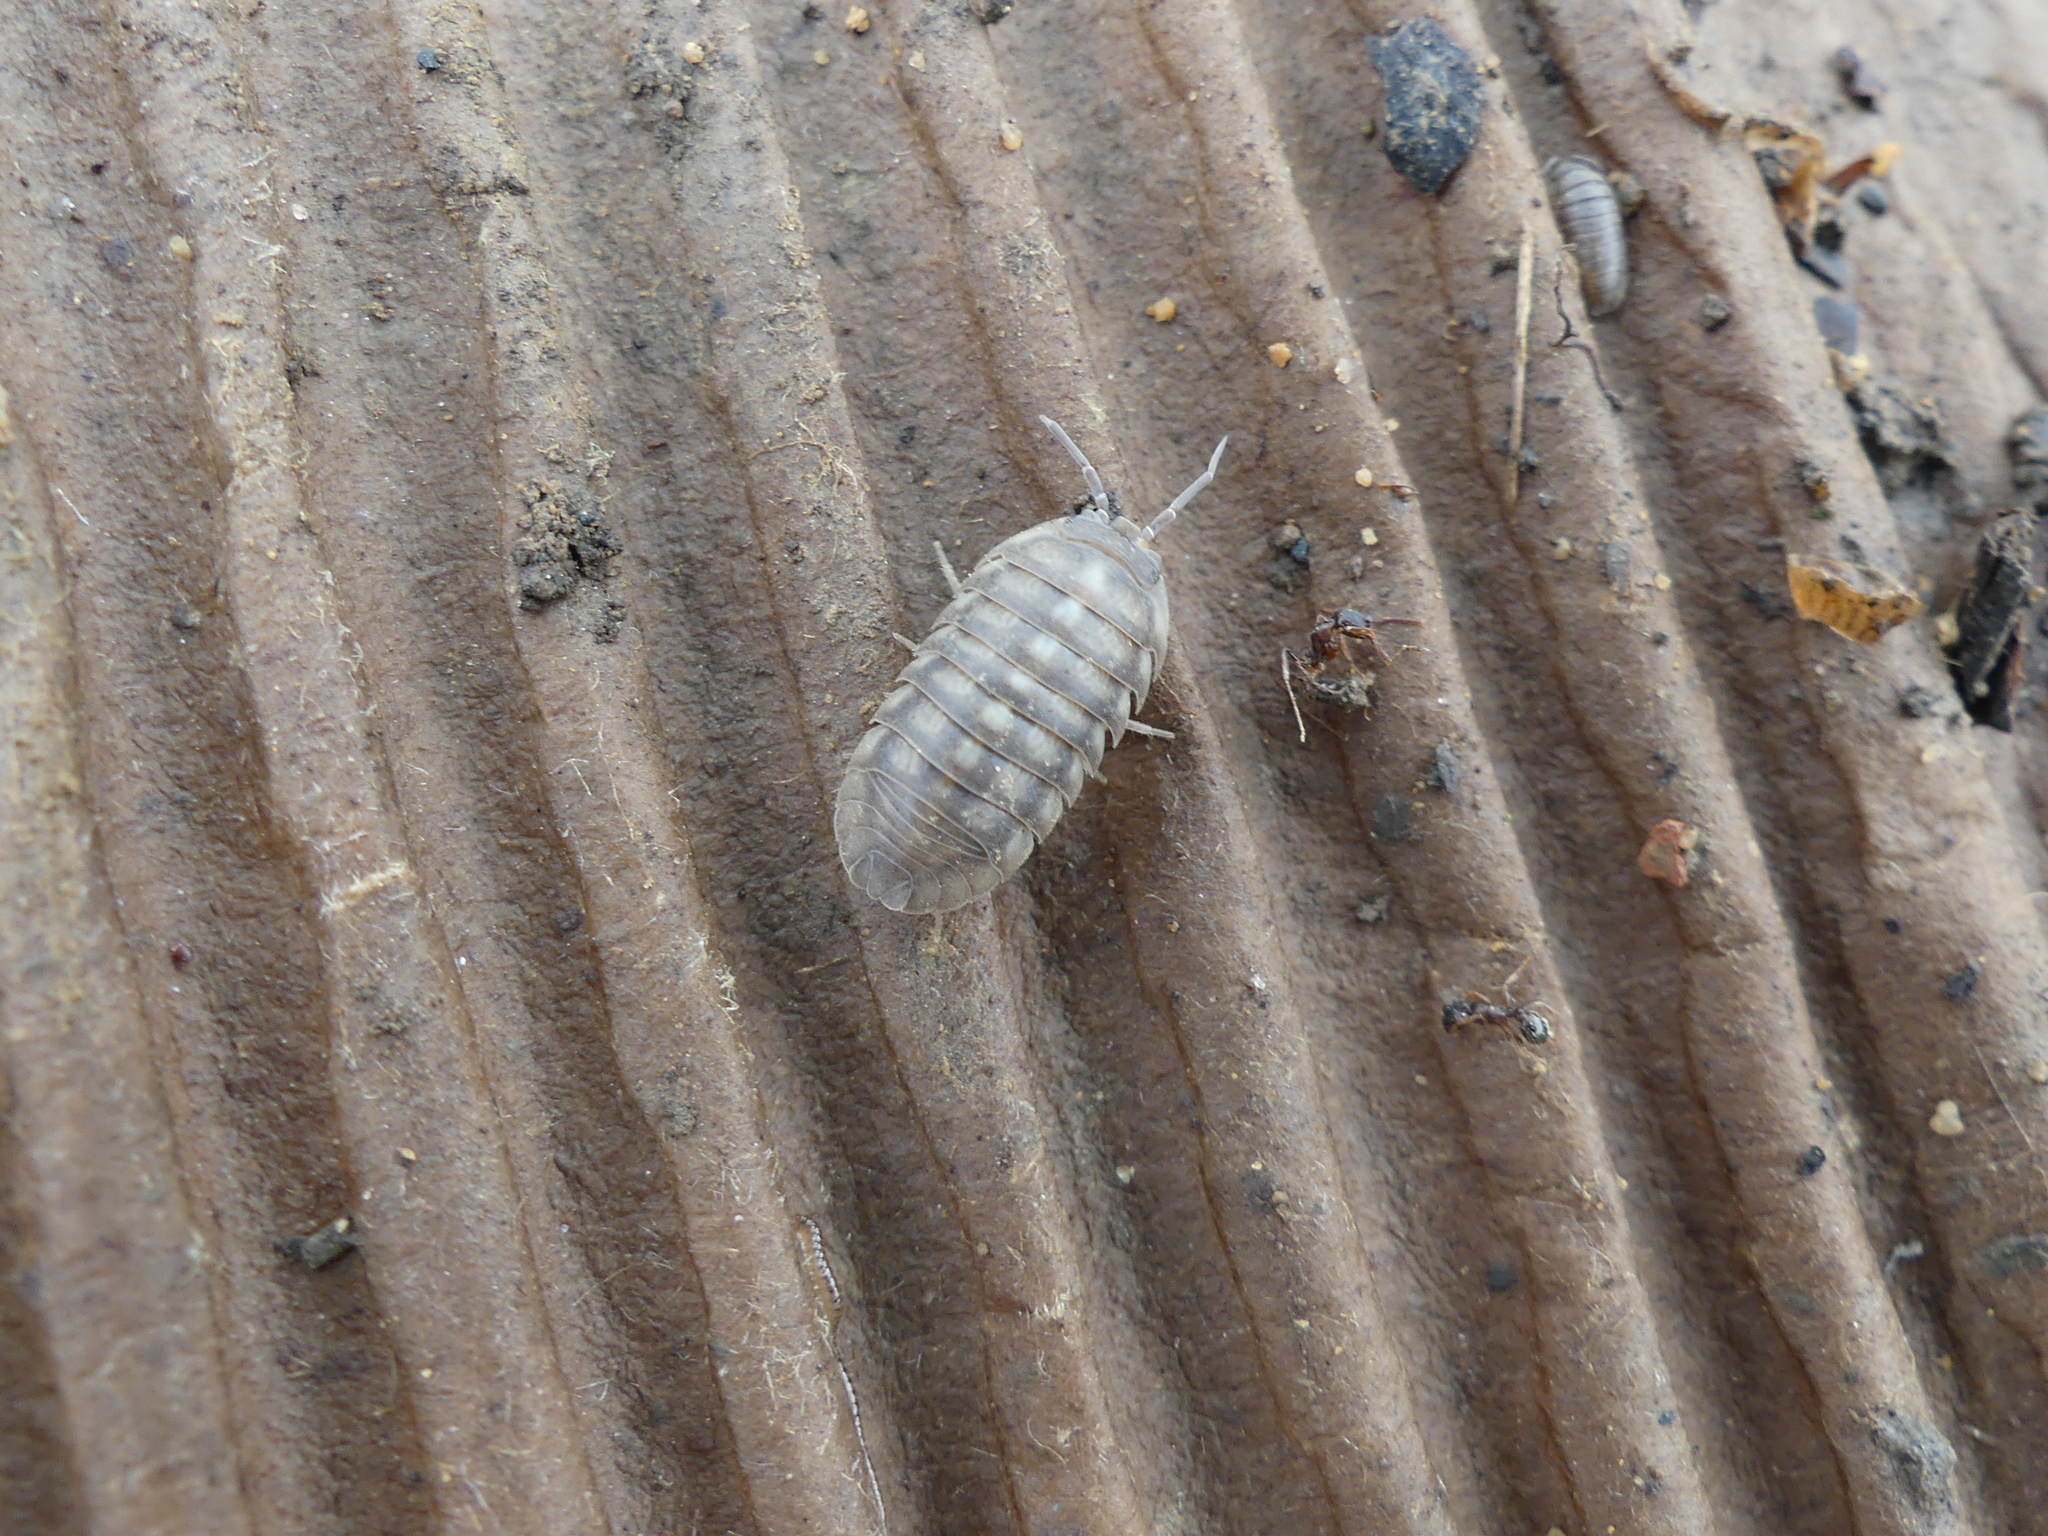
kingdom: Animalia
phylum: Arthropoda
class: Malacostraca
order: Isopoda
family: Armadillidiidae
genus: Armadillidium
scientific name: Armadillidium nasatum
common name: Isopod
